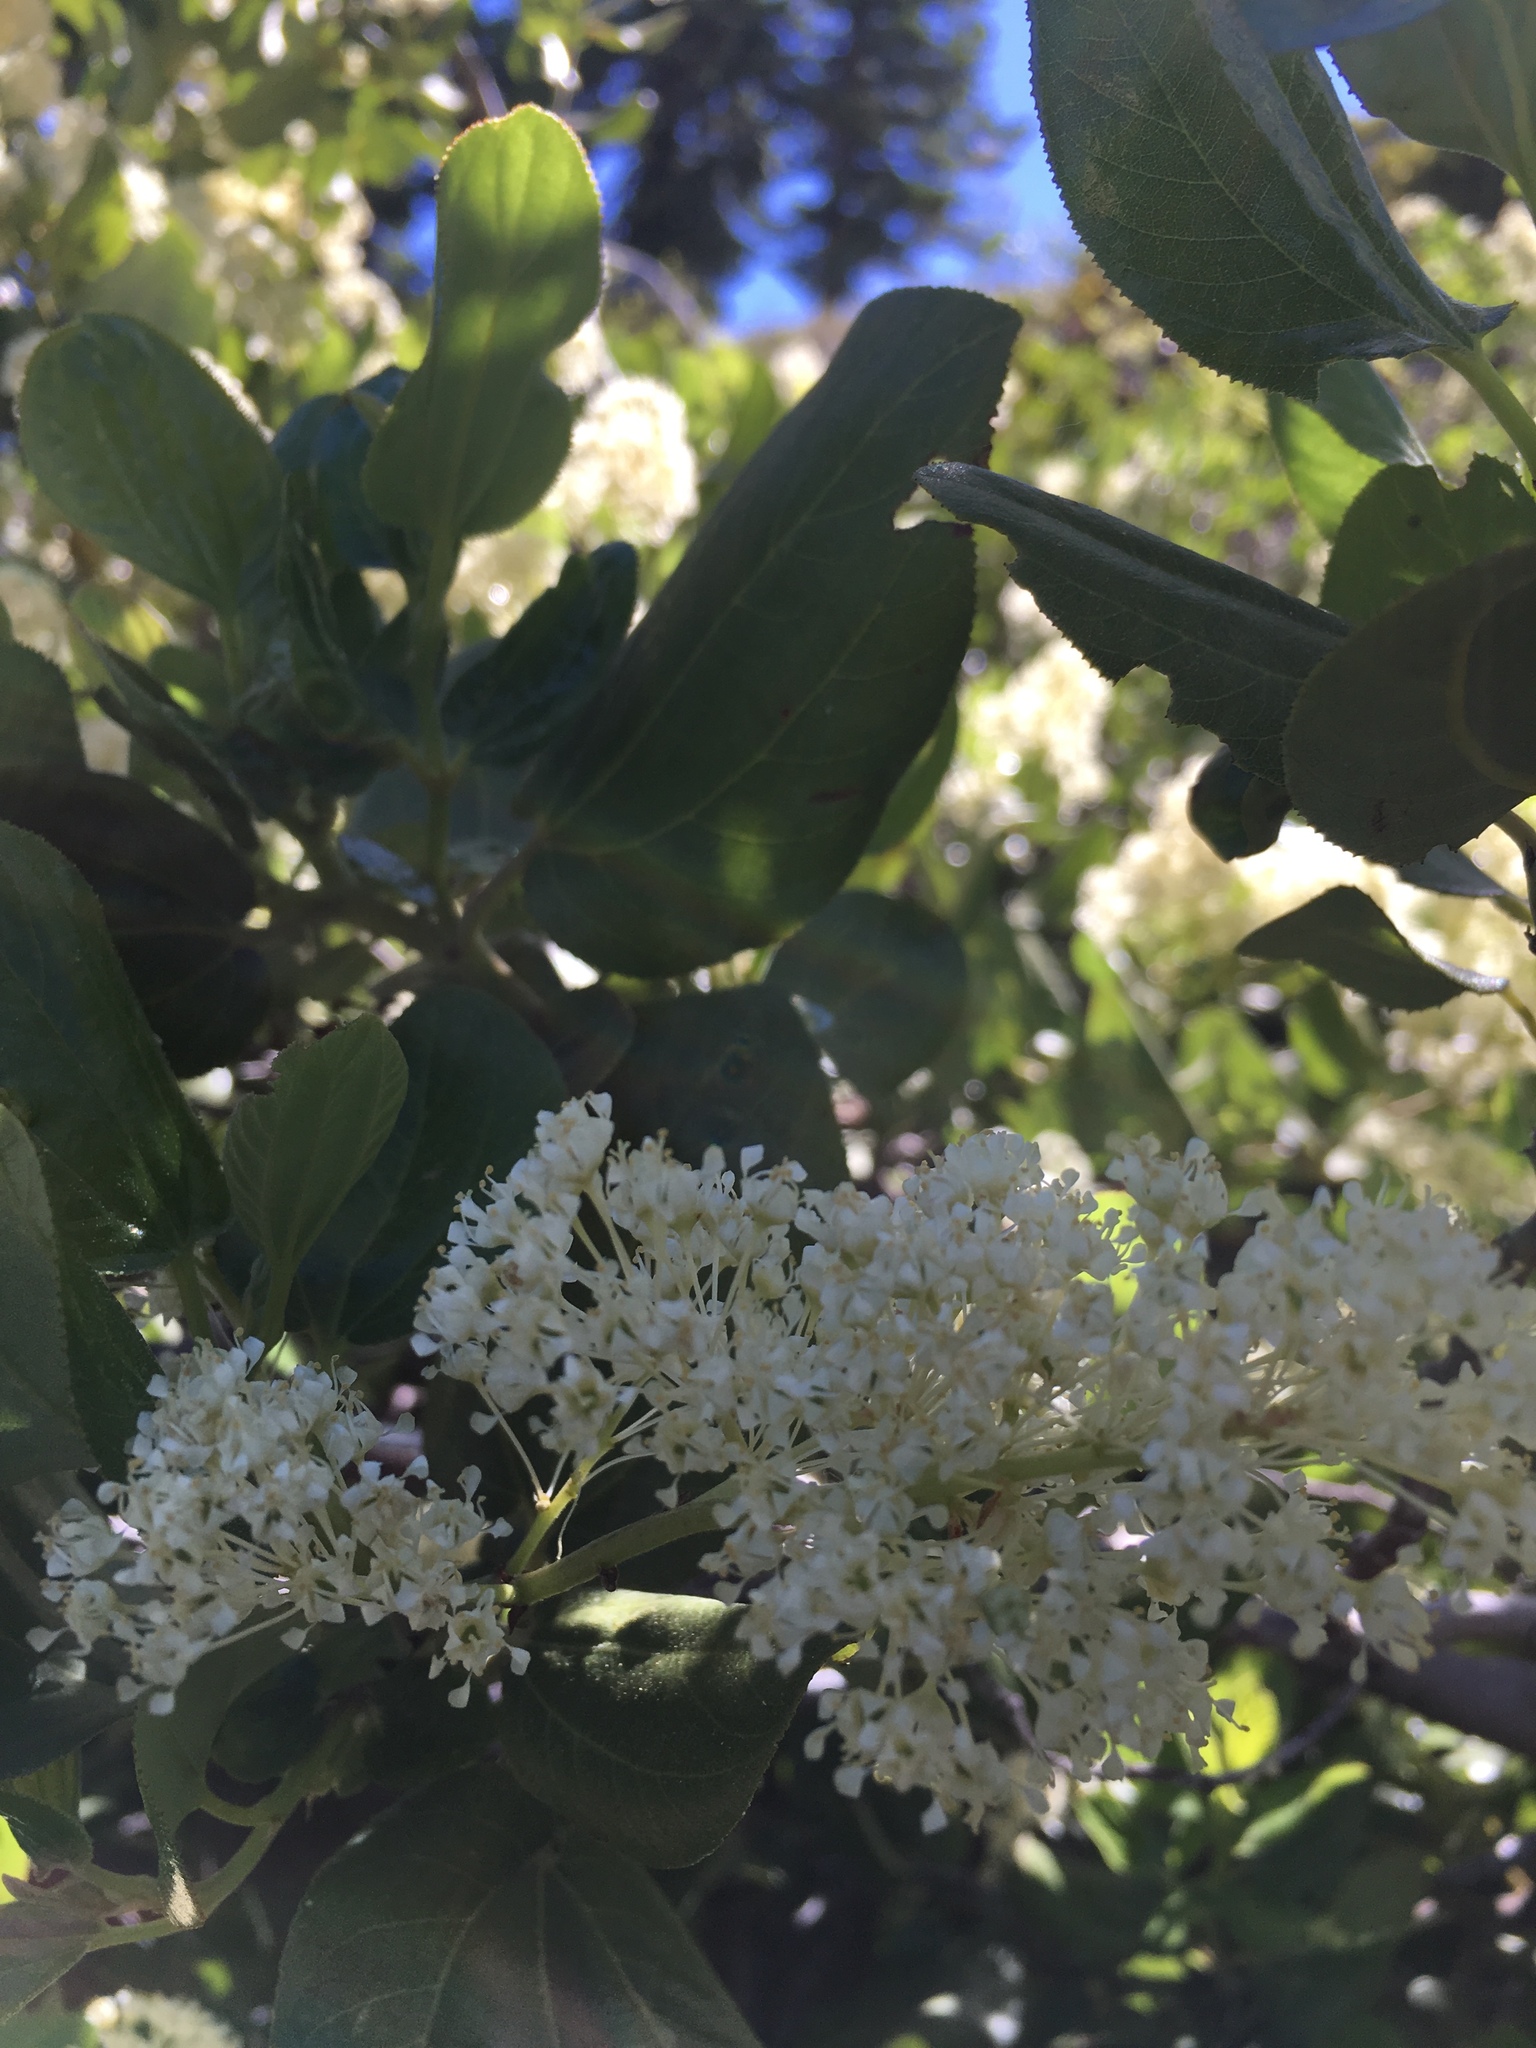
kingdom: Plantae
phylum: Tracheophyta
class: Magnoliopsida
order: Rosales
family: Rhamnaceae
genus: Ceanothus
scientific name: Ceanothus velutinus
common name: Snowbrush
